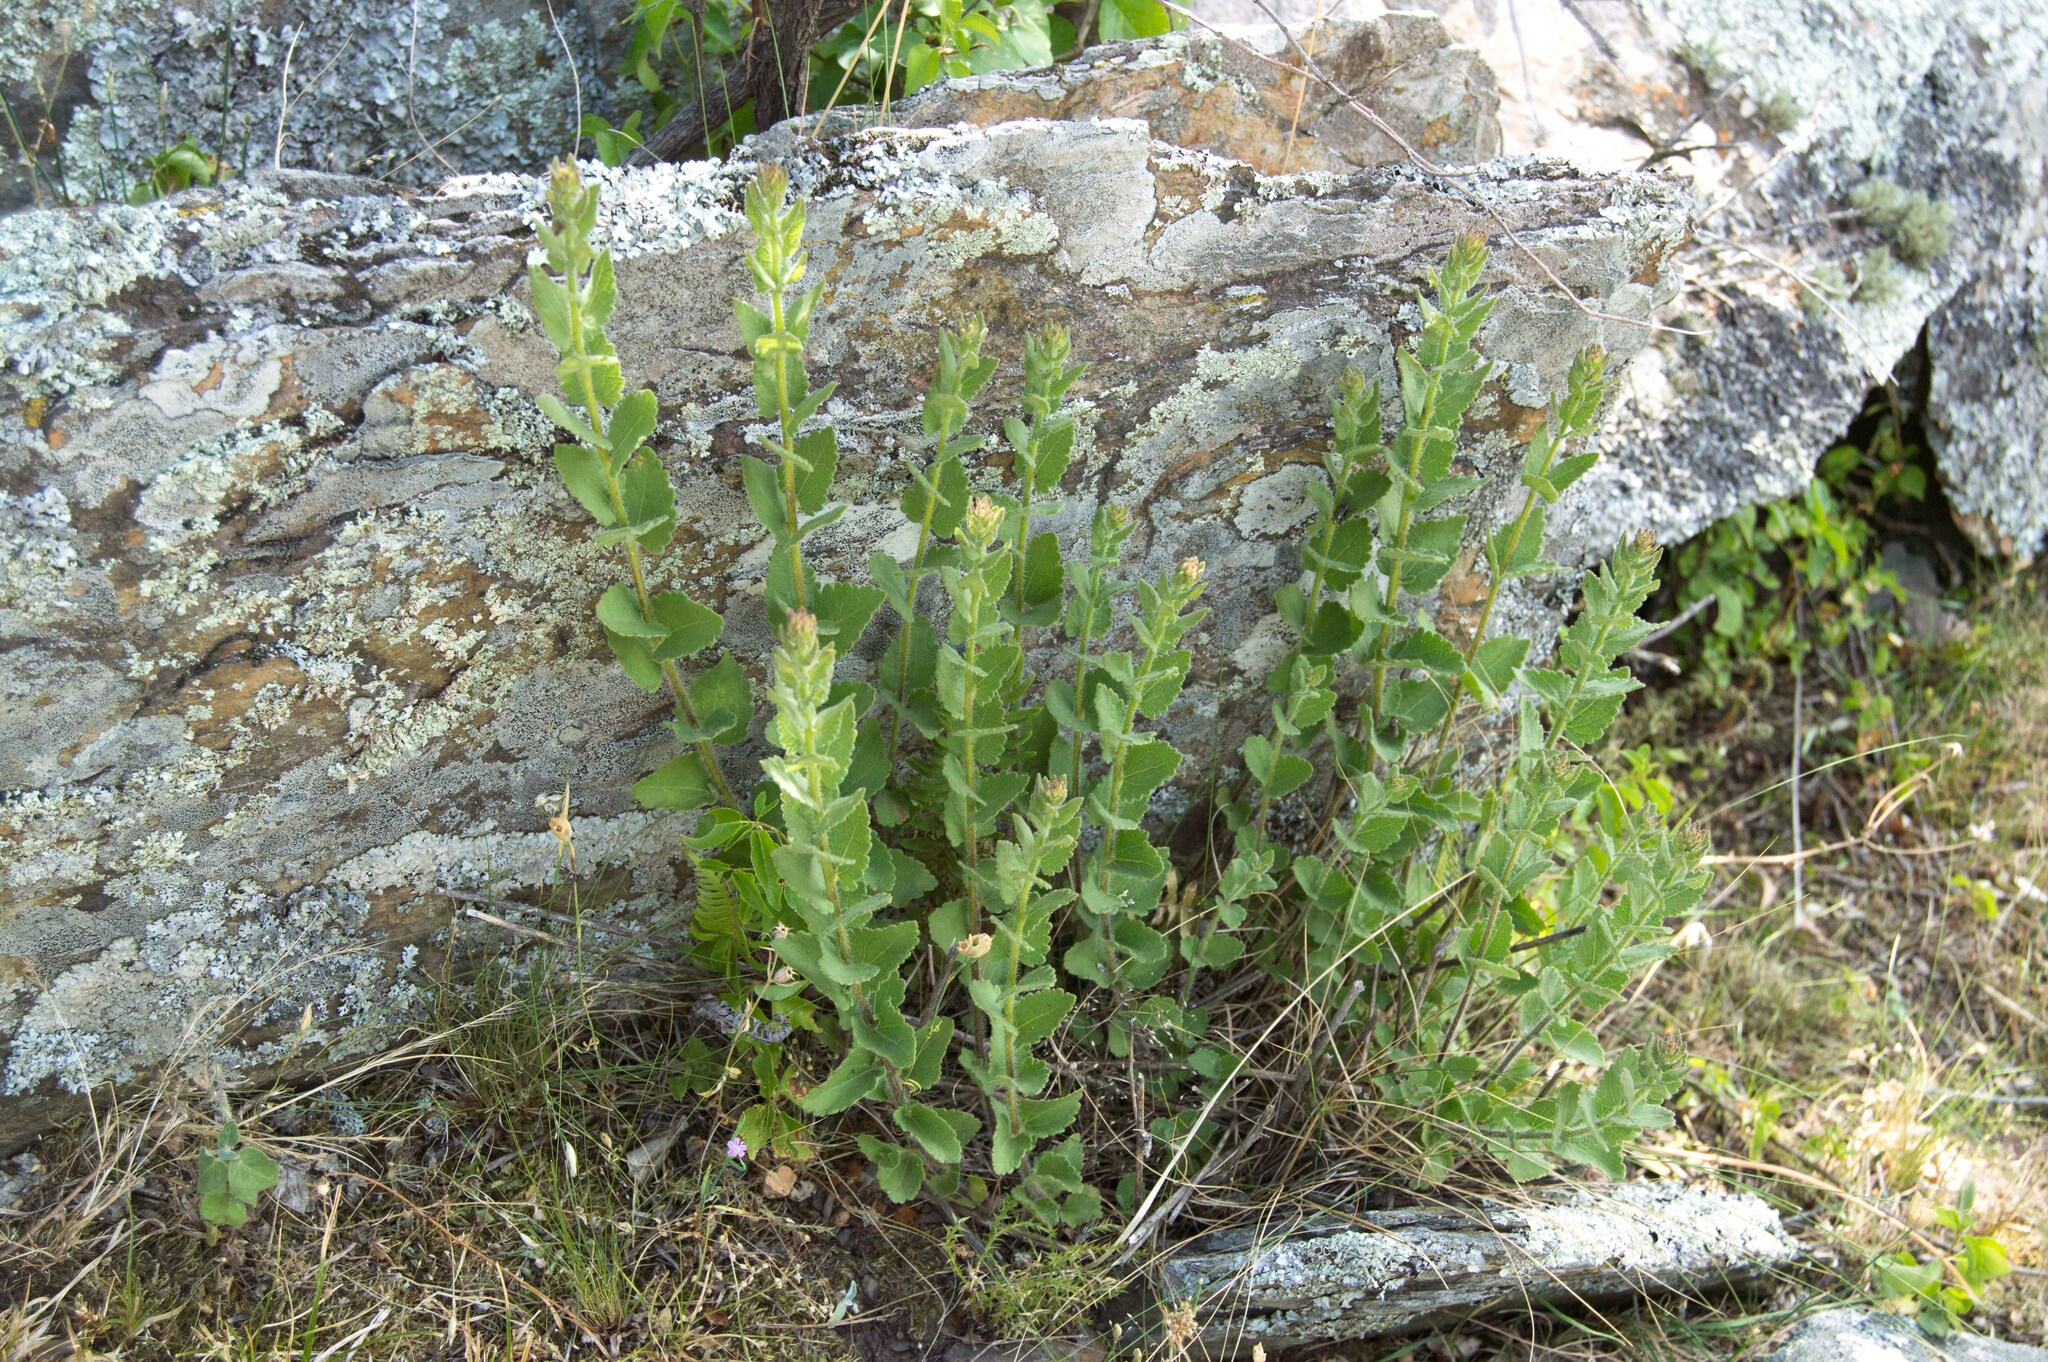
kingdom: Plantae
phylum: Tracheophyta
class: Magnoliopsida
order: Asterales
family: Asteraceae
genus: Chromolaena
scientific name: Chromolaena hirsuta
